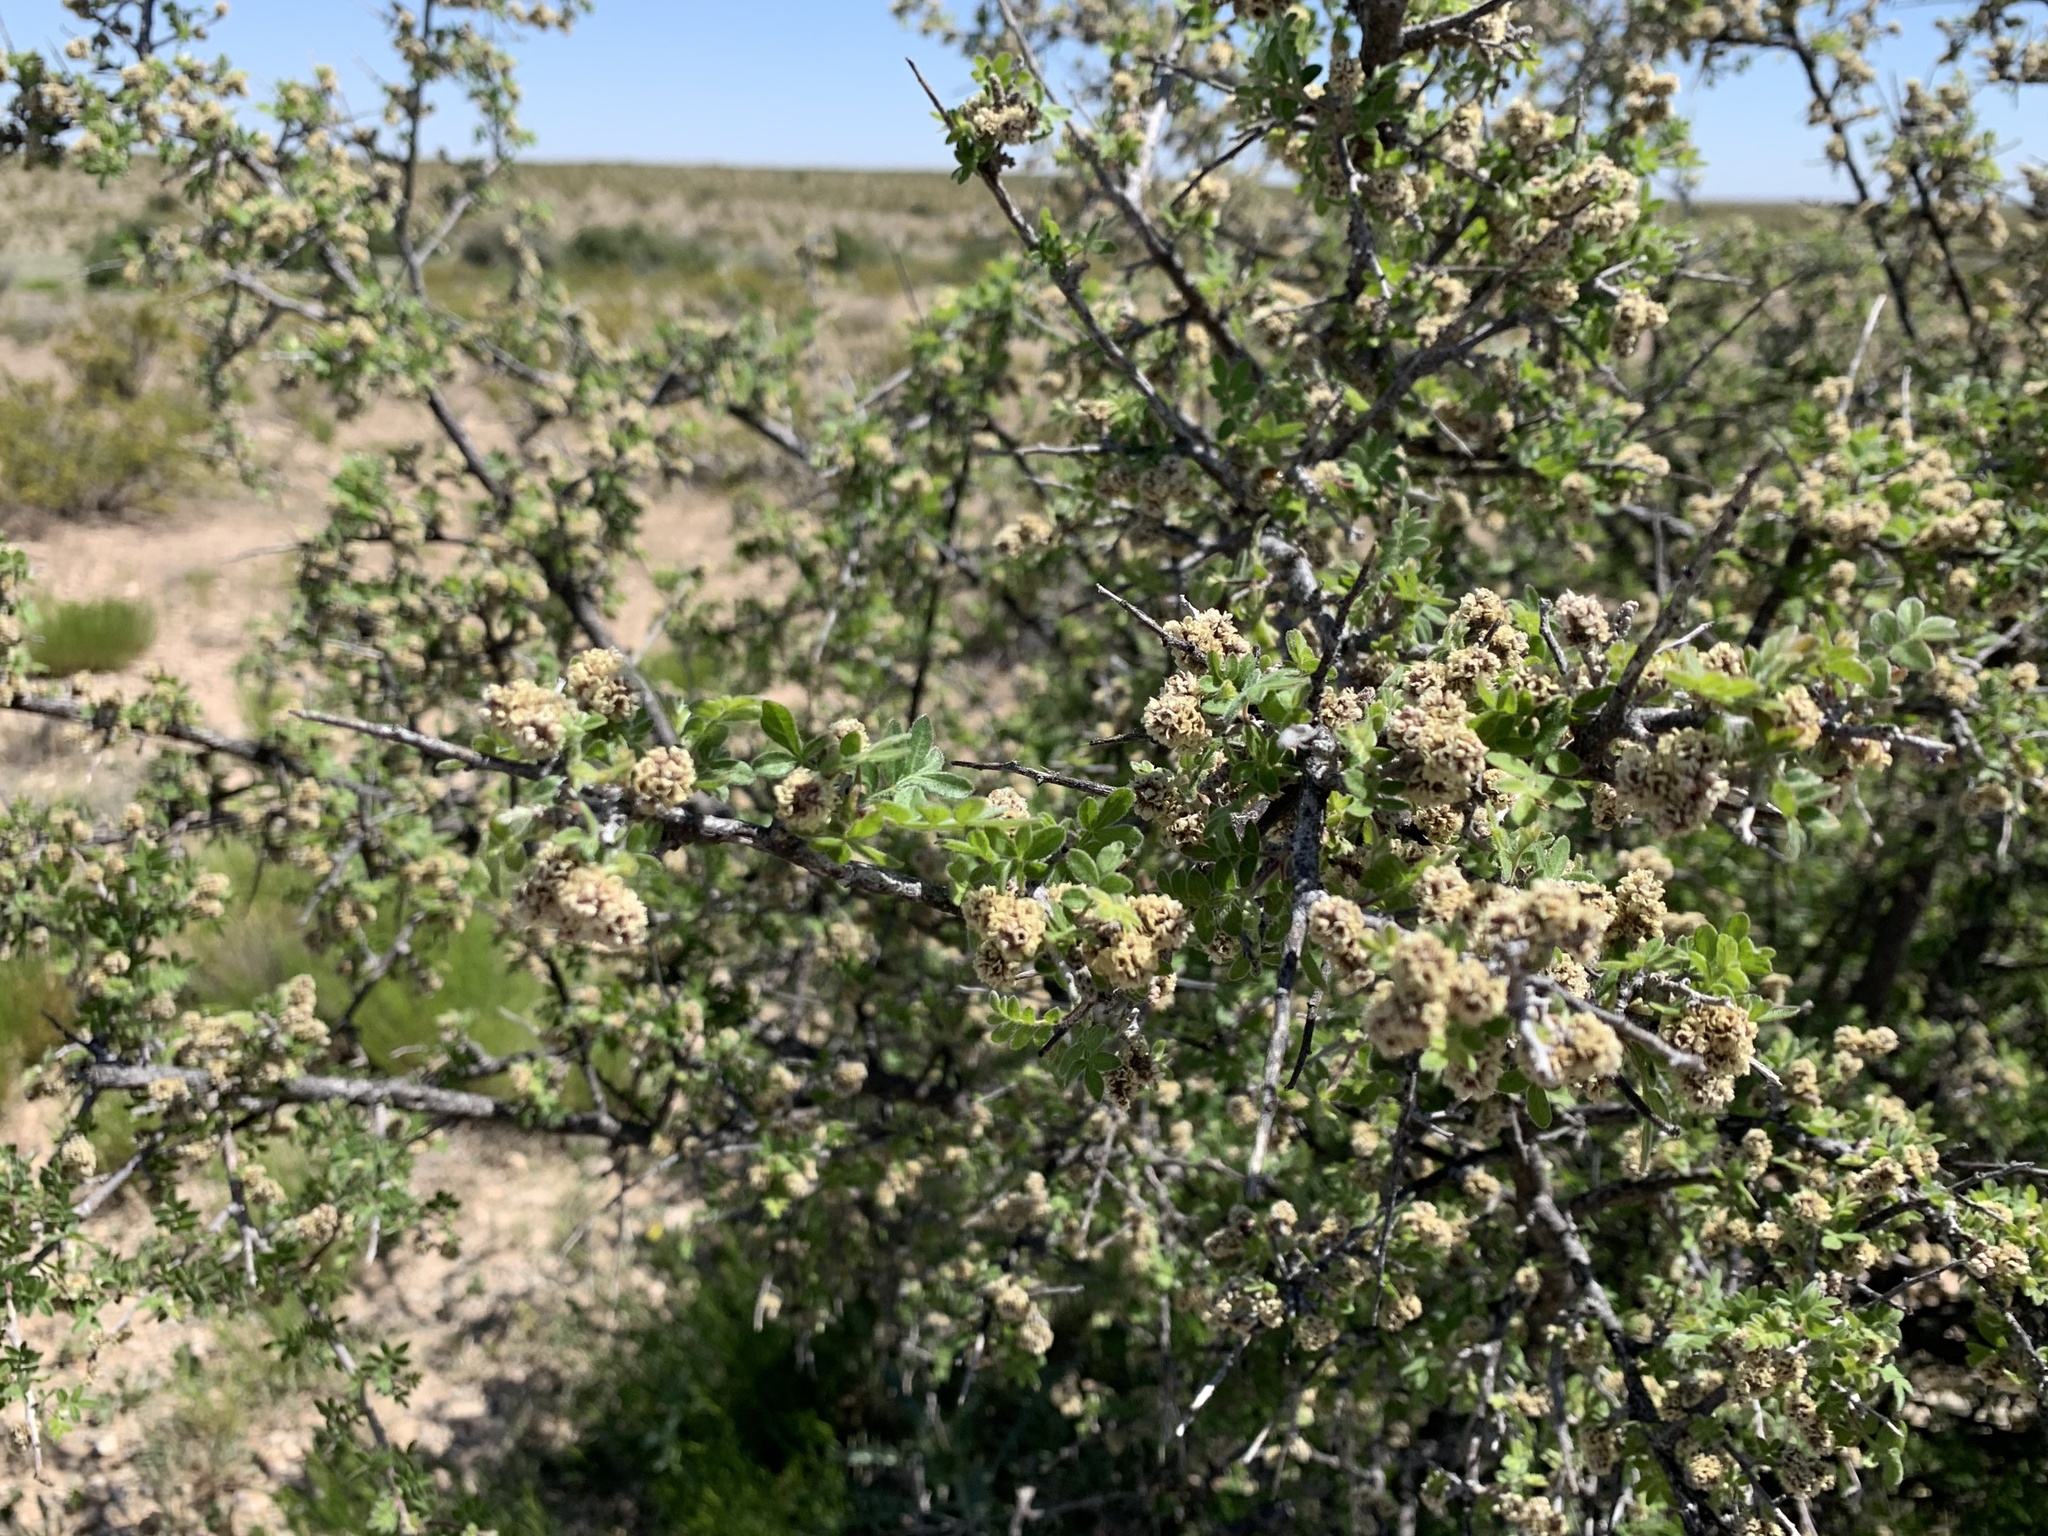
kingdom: Plantae
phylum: Tracheophyta
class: Magnoliopsida
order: Sapindales
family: Anacardiaceae
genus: Rhus
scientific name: Rhus microphylla
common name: Desert sumac
